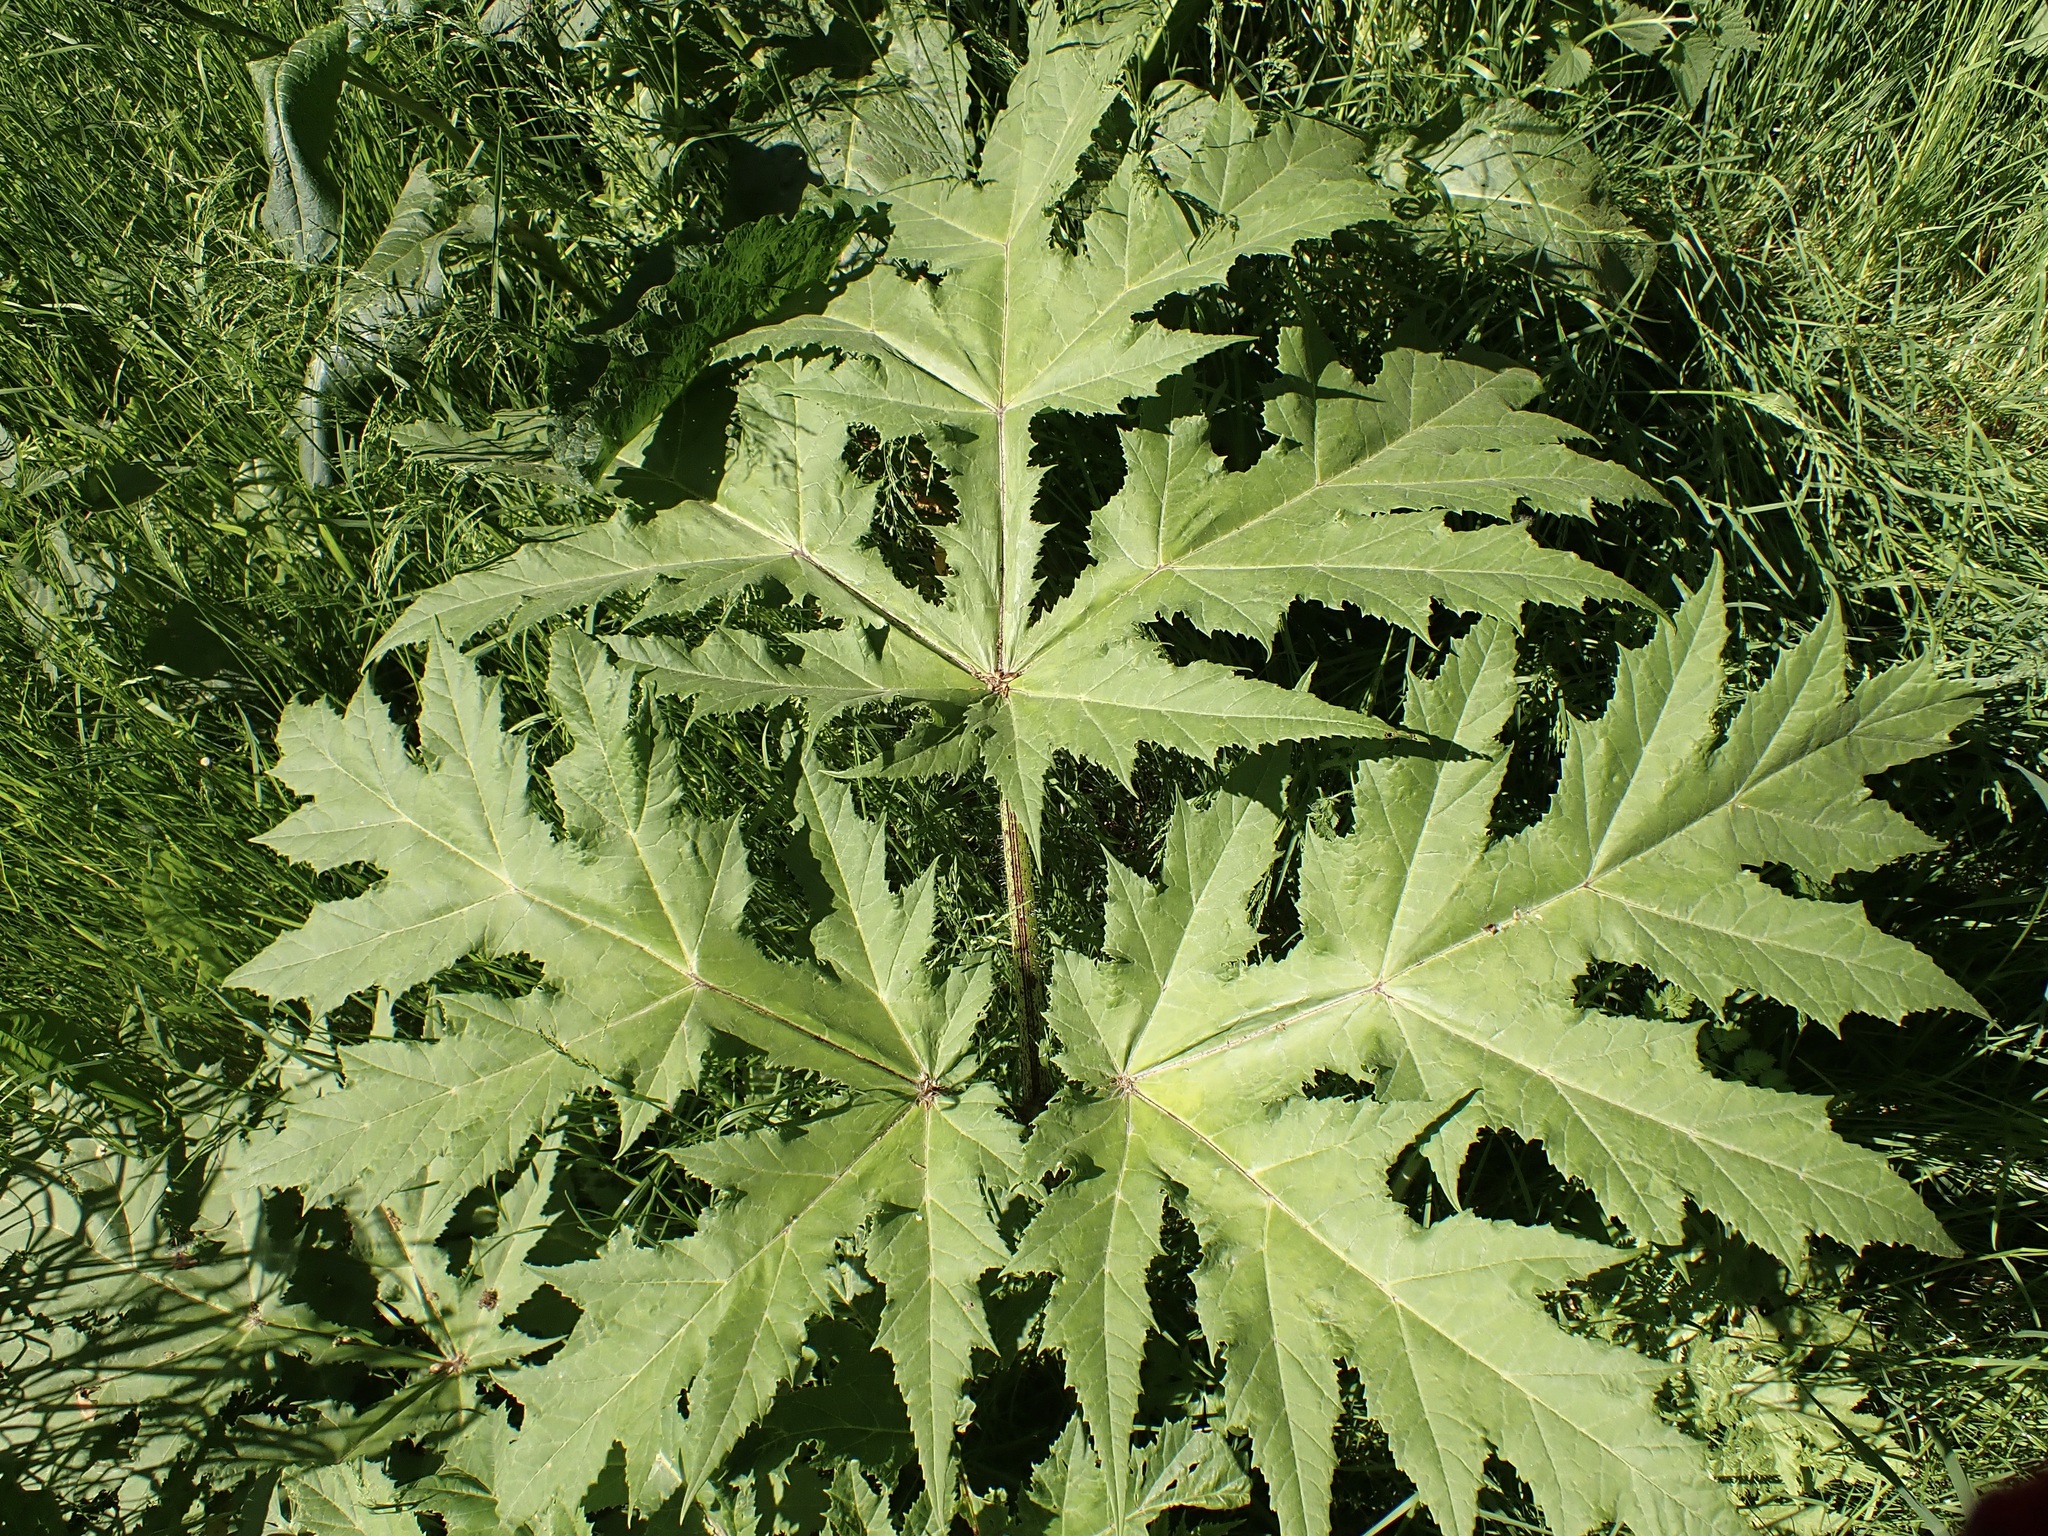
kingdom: Plantae
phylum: Tracheophyta
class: Magnoliopsida
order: Apiales
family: Apiaceae
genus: Heracleum
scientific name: Heracleum mantegazzianum
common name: Giant hogweed
